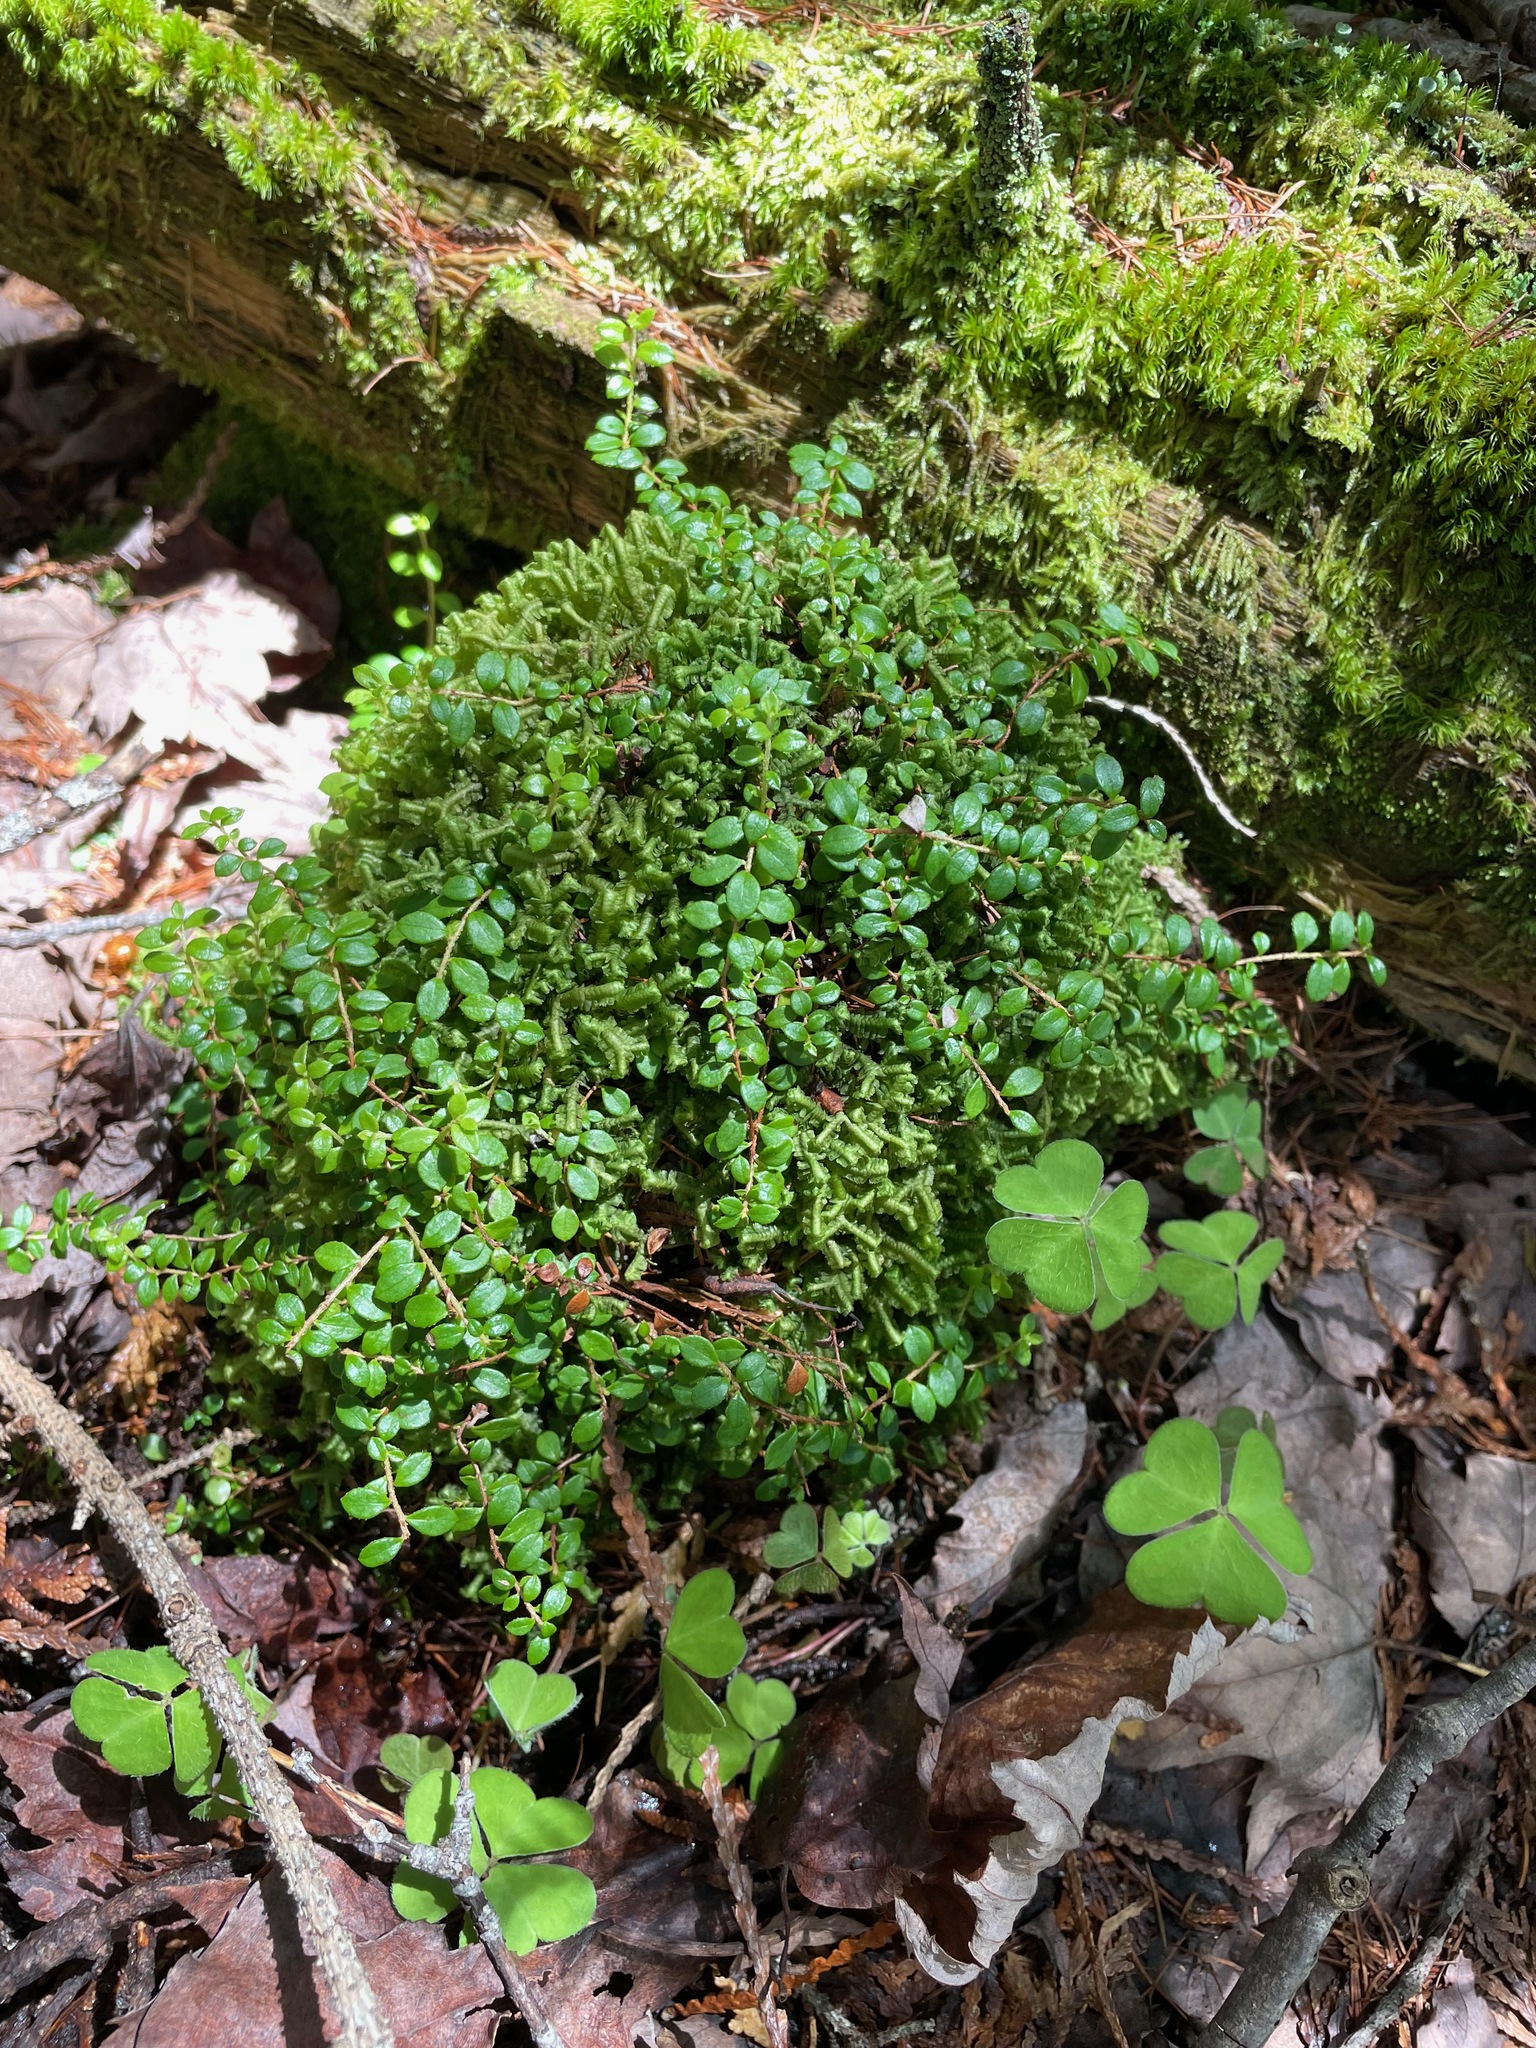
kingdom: Plantae
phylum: Tracheophyta
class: Magnoliopsida
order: Ericales
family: Ericaceae
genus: Gaultheria
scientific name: Gaultheria hispidula
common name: Cancer wintergreen
